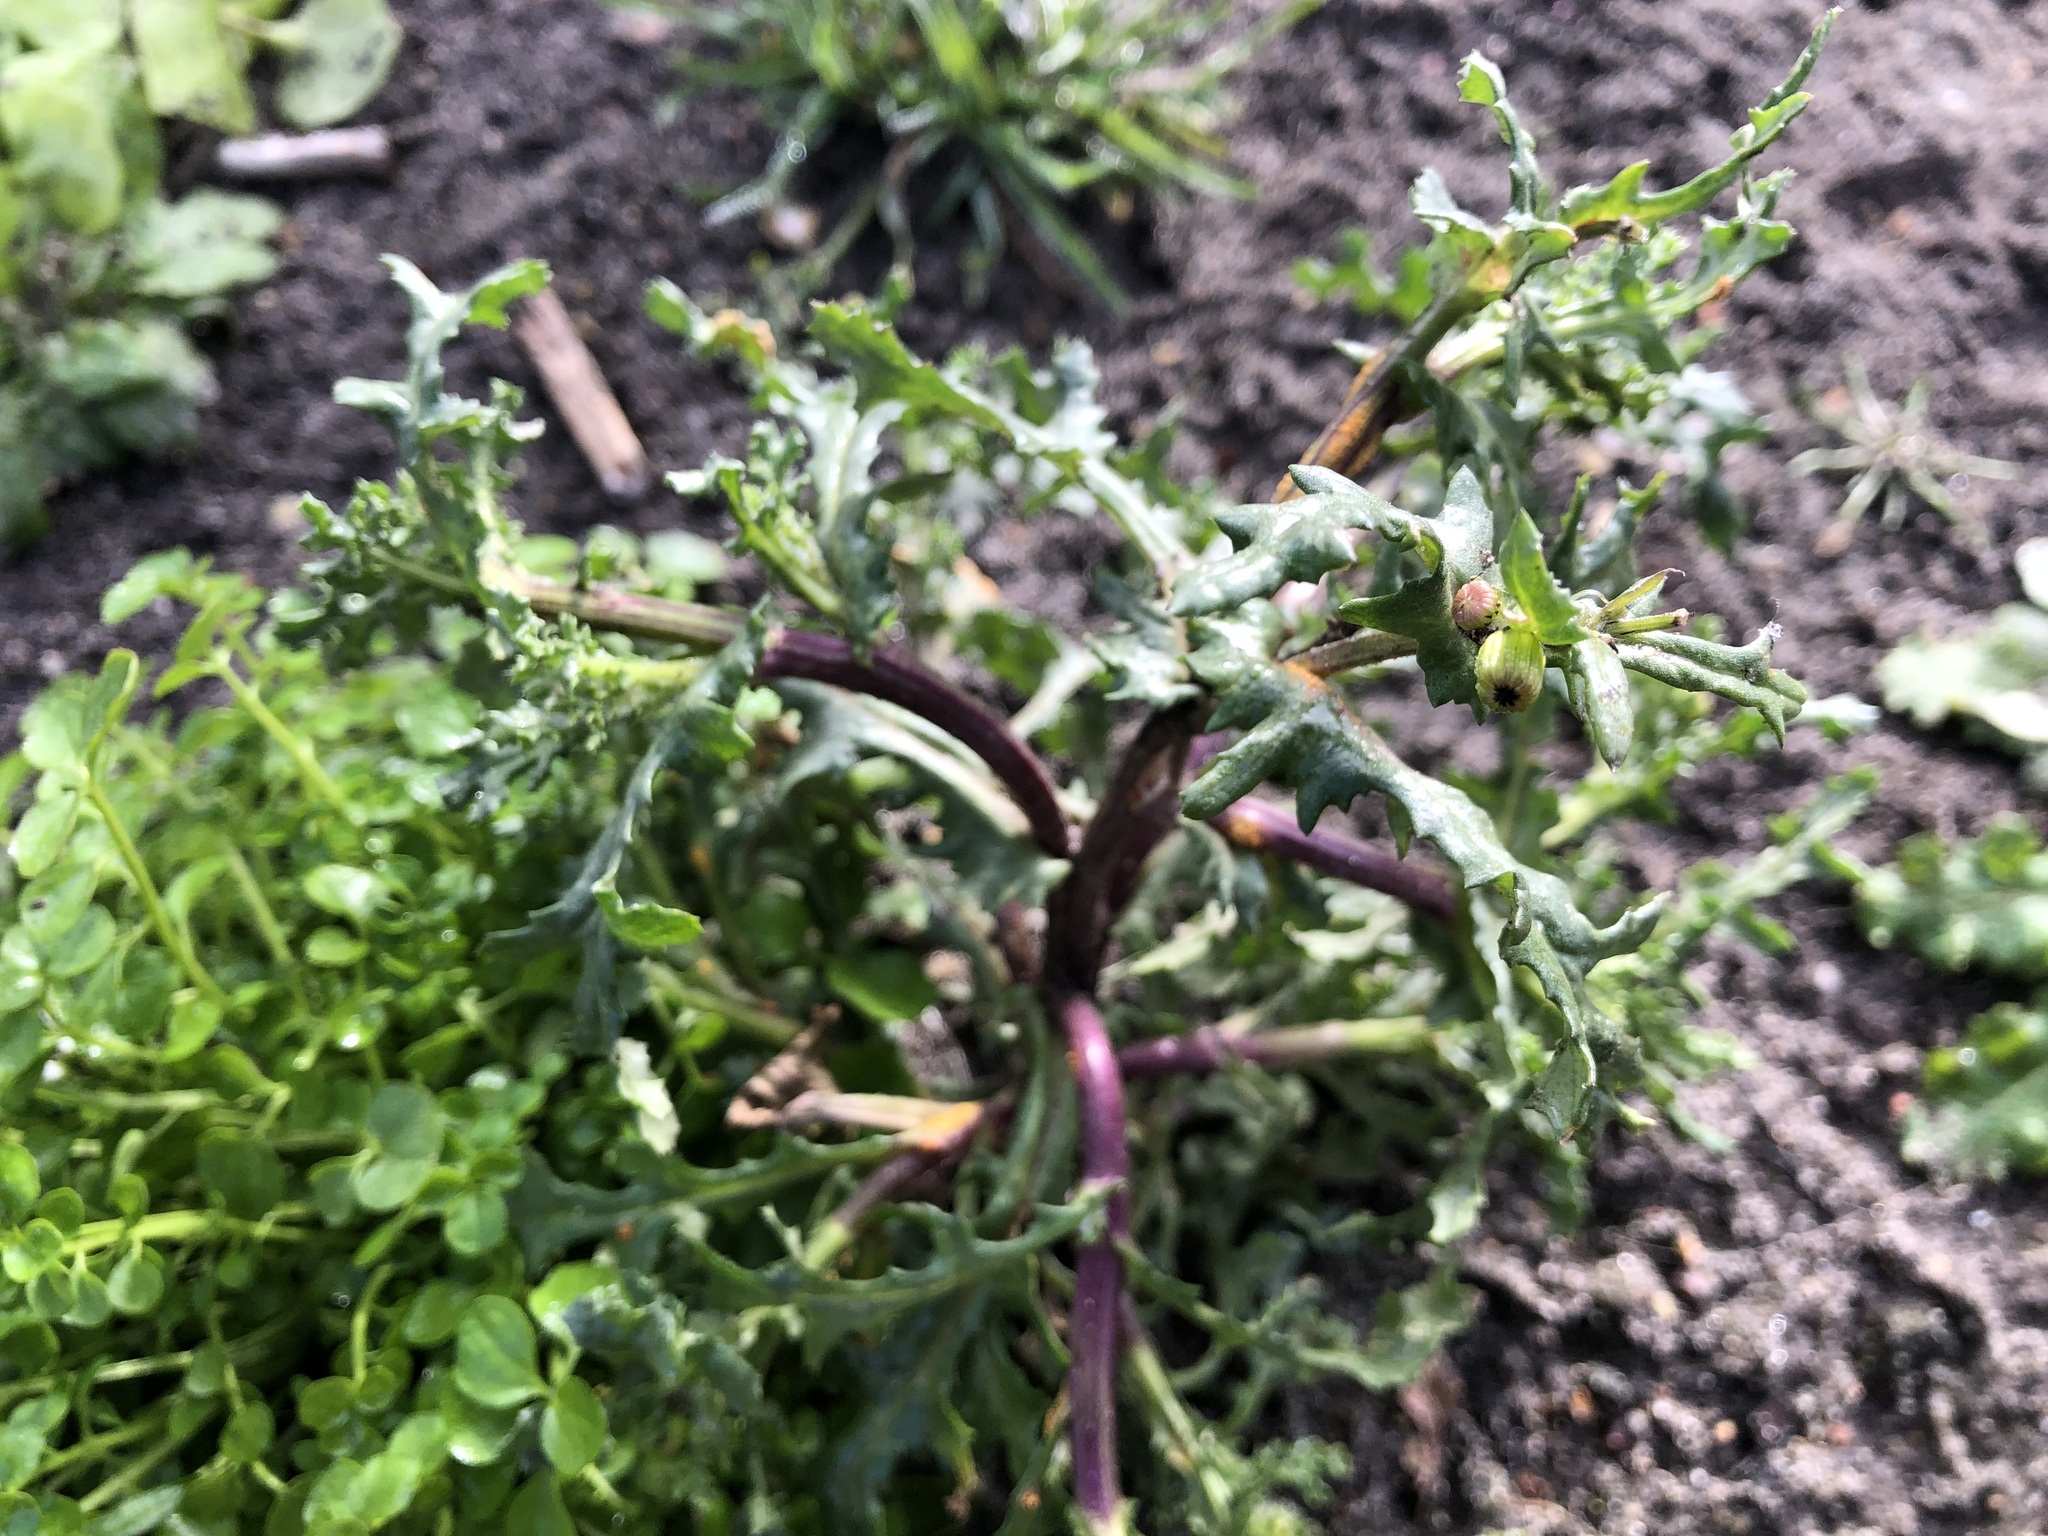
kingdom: Plantae
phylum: Tracheophyta
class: Magnoliopsida
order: Asterales
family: Asteraceae
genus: Senecio
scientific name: Senecio vulgaris
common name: Old-man-in-the-spring
